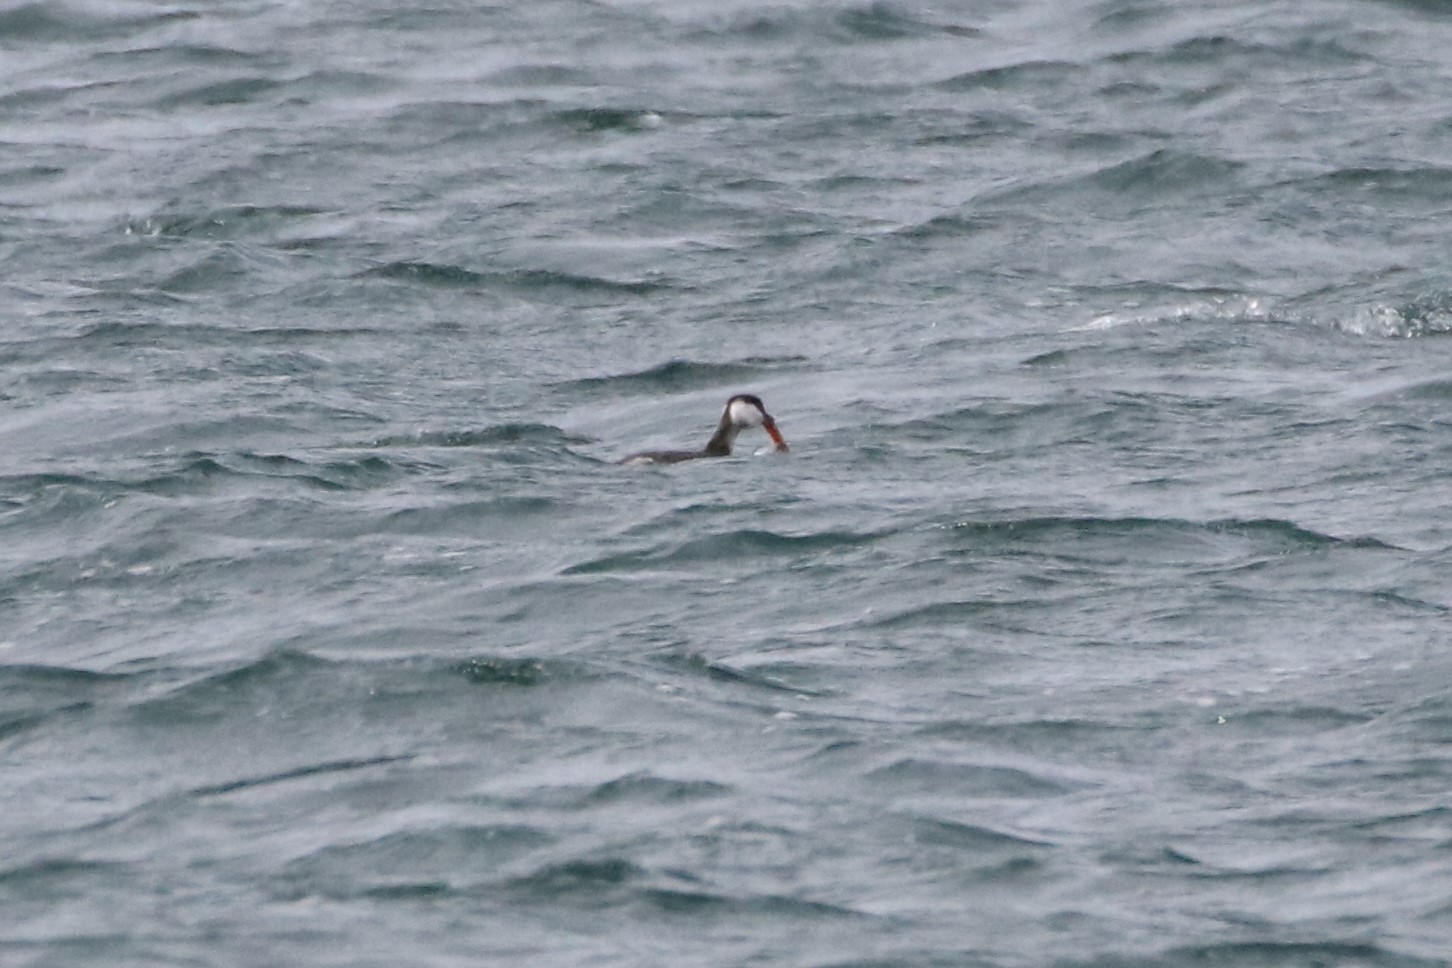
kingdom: Animalia
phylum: Chordata
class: Aves
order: Podicipediformes
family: Podicipedidae
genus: Podiceps
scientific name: Podiceps auritus
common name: Horned grebe
